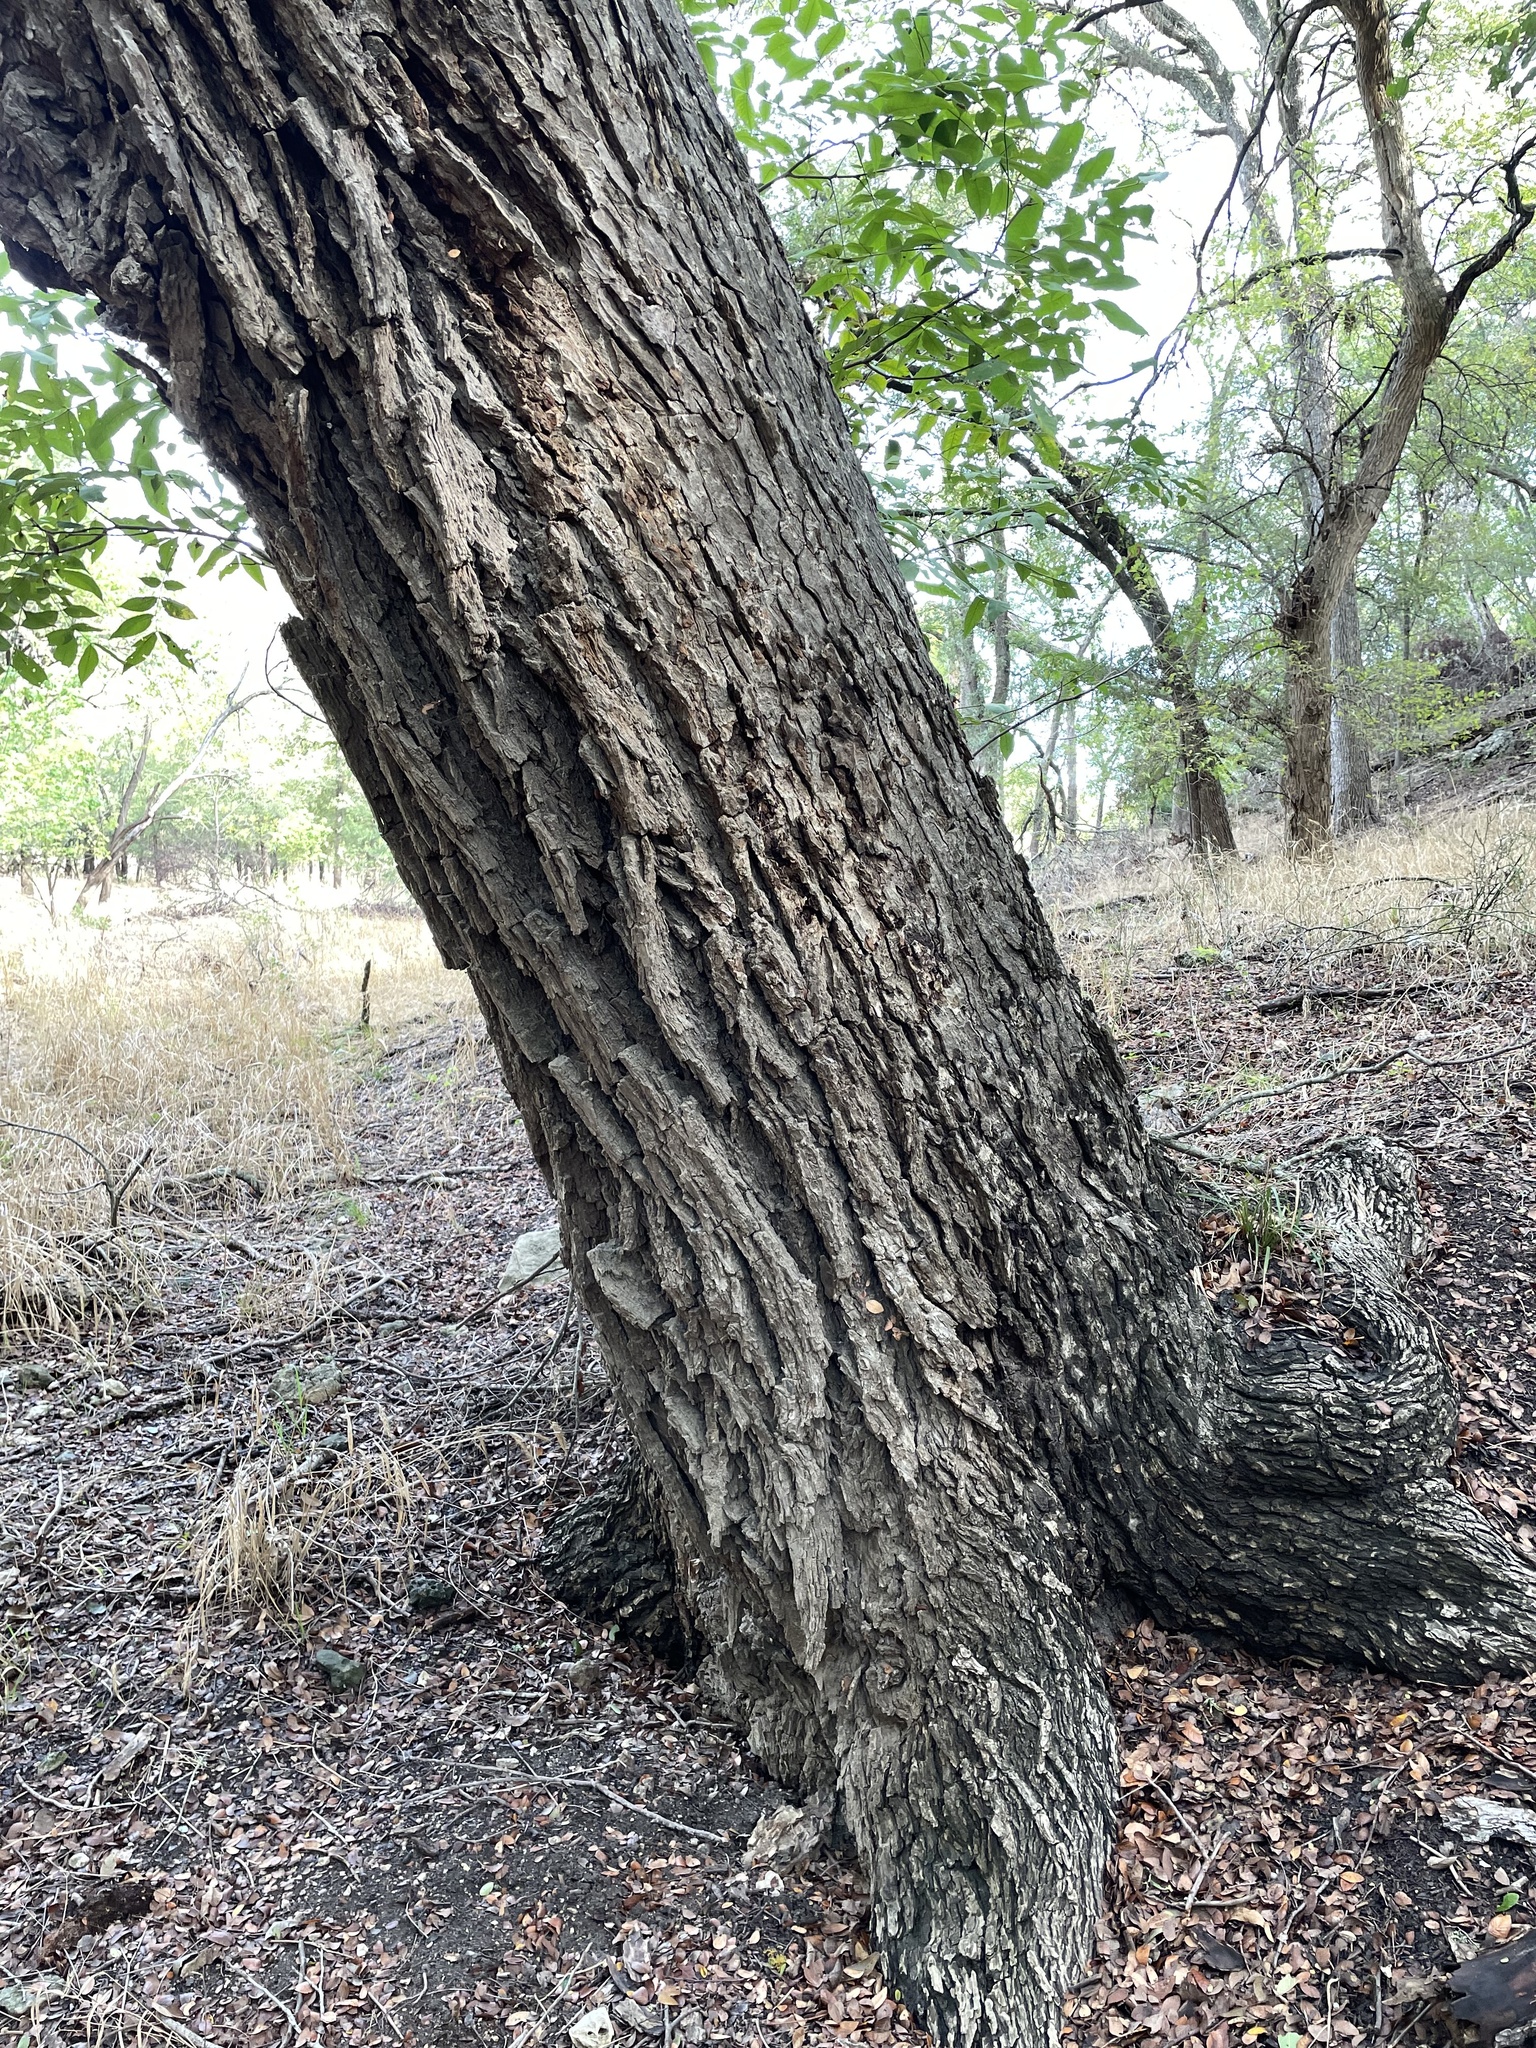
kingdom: Plantae
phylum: Tracheophyta
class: Magnoliopsida
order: Fagales
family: Juglandaceae
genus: Carya
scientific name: Carya illinoinensis
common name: Pecan
